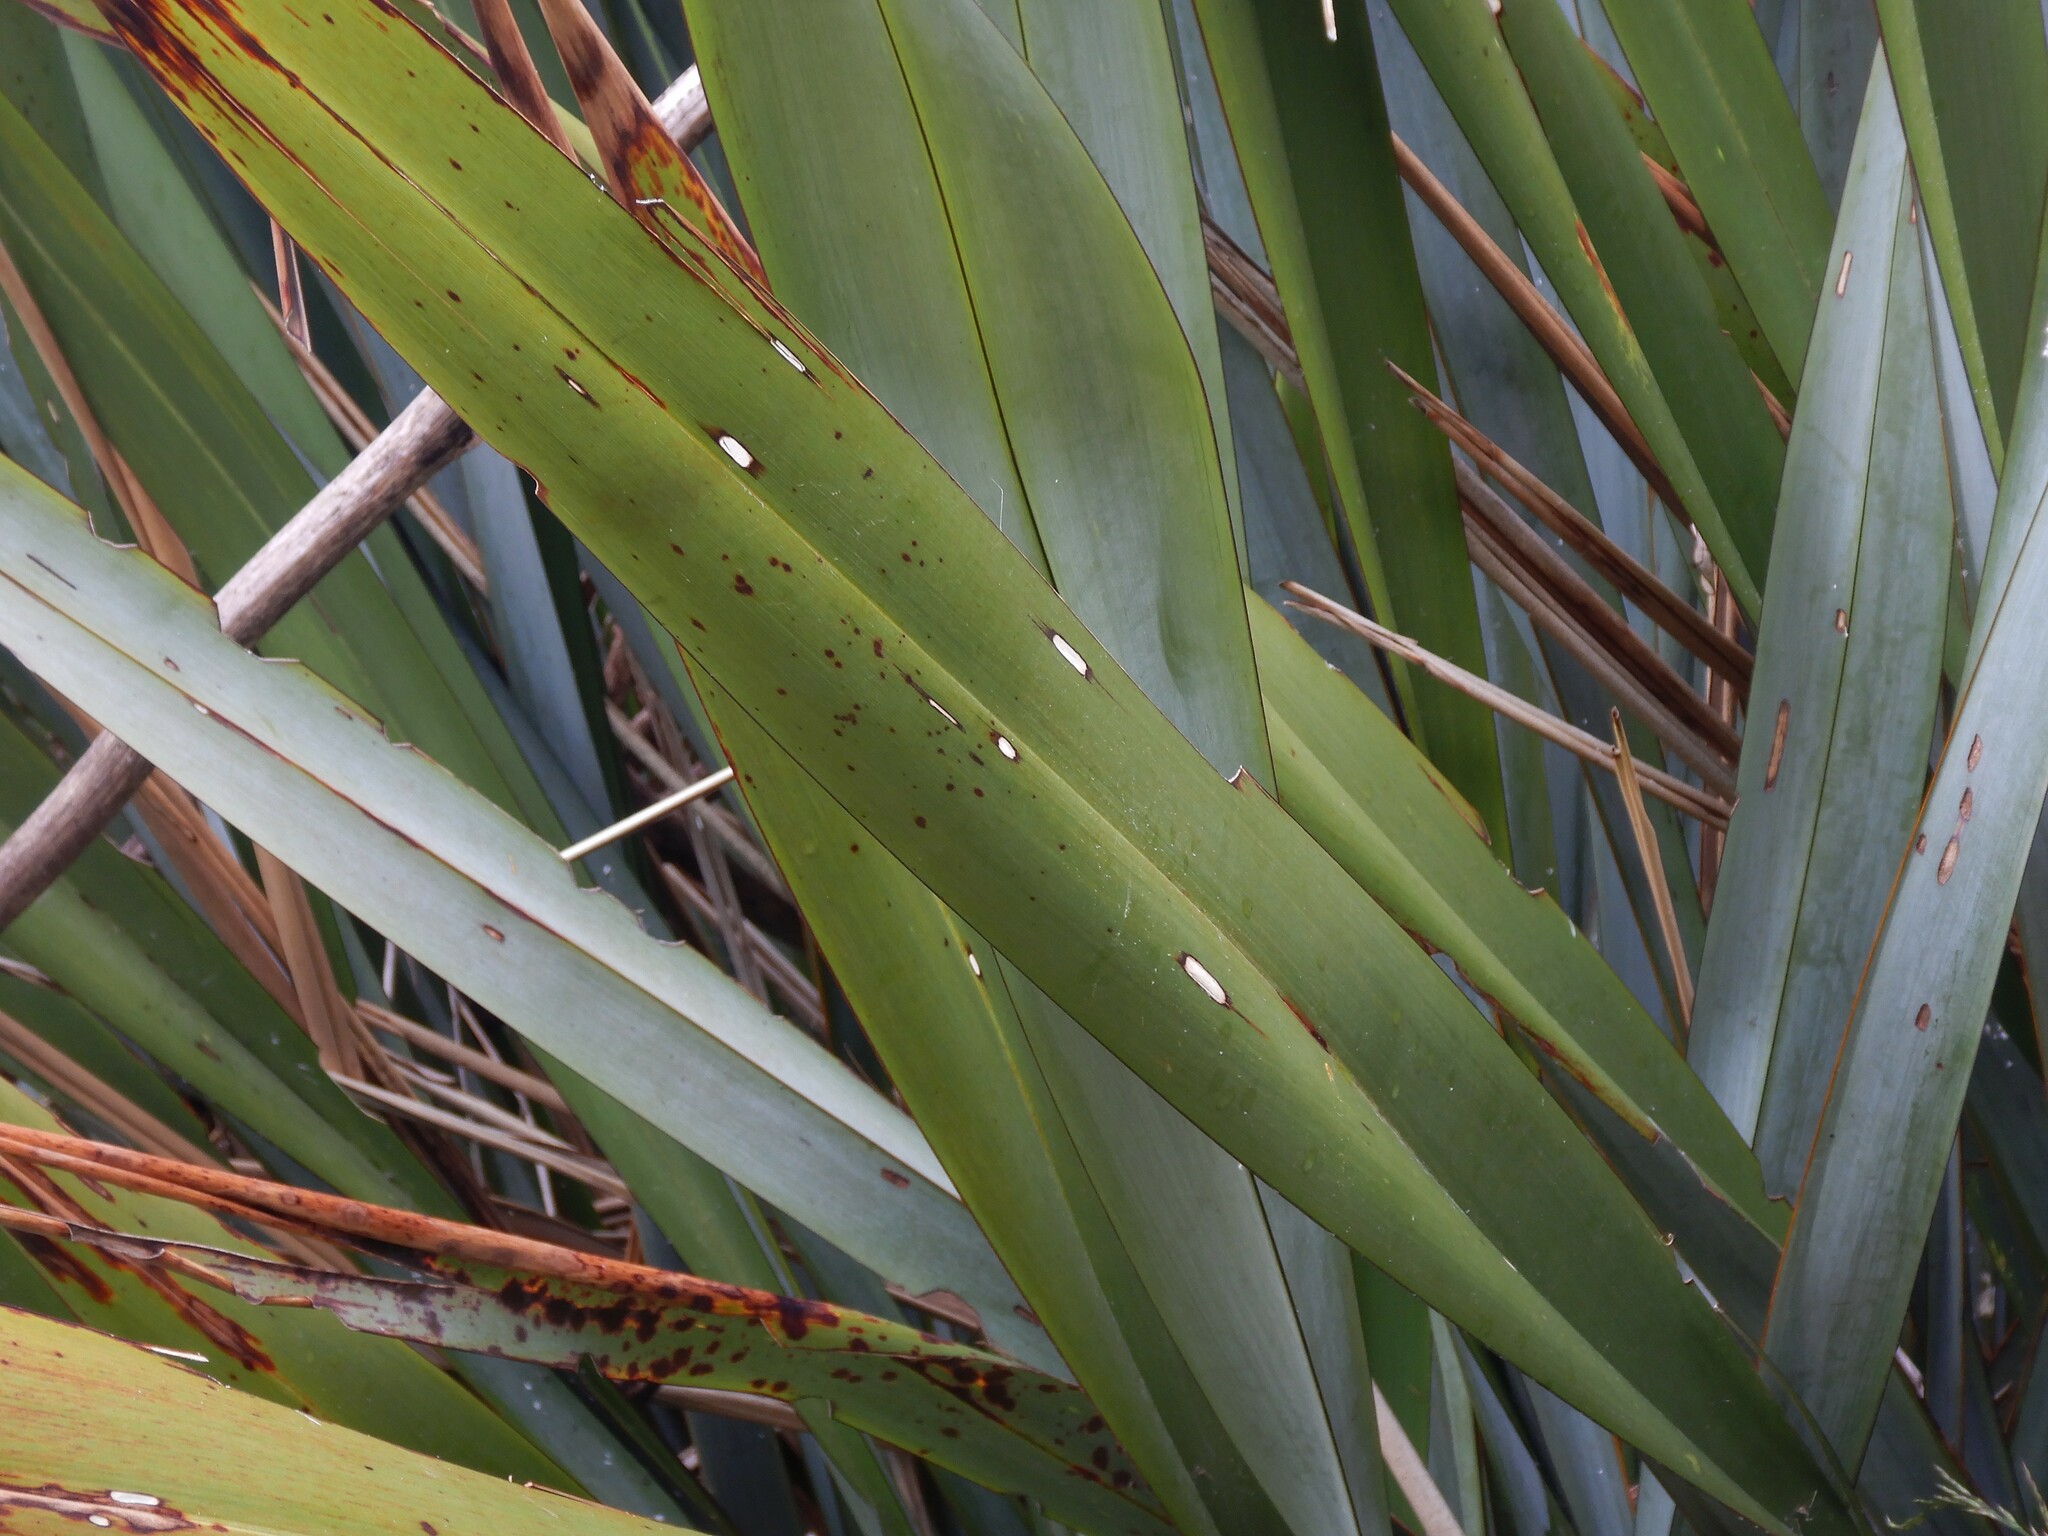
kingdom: Animalia
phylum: Arthropoda
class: Insecta
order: Lepidoptera
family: Geometridae
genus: Orthoclydon
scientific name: Orthoclydon praefectata
